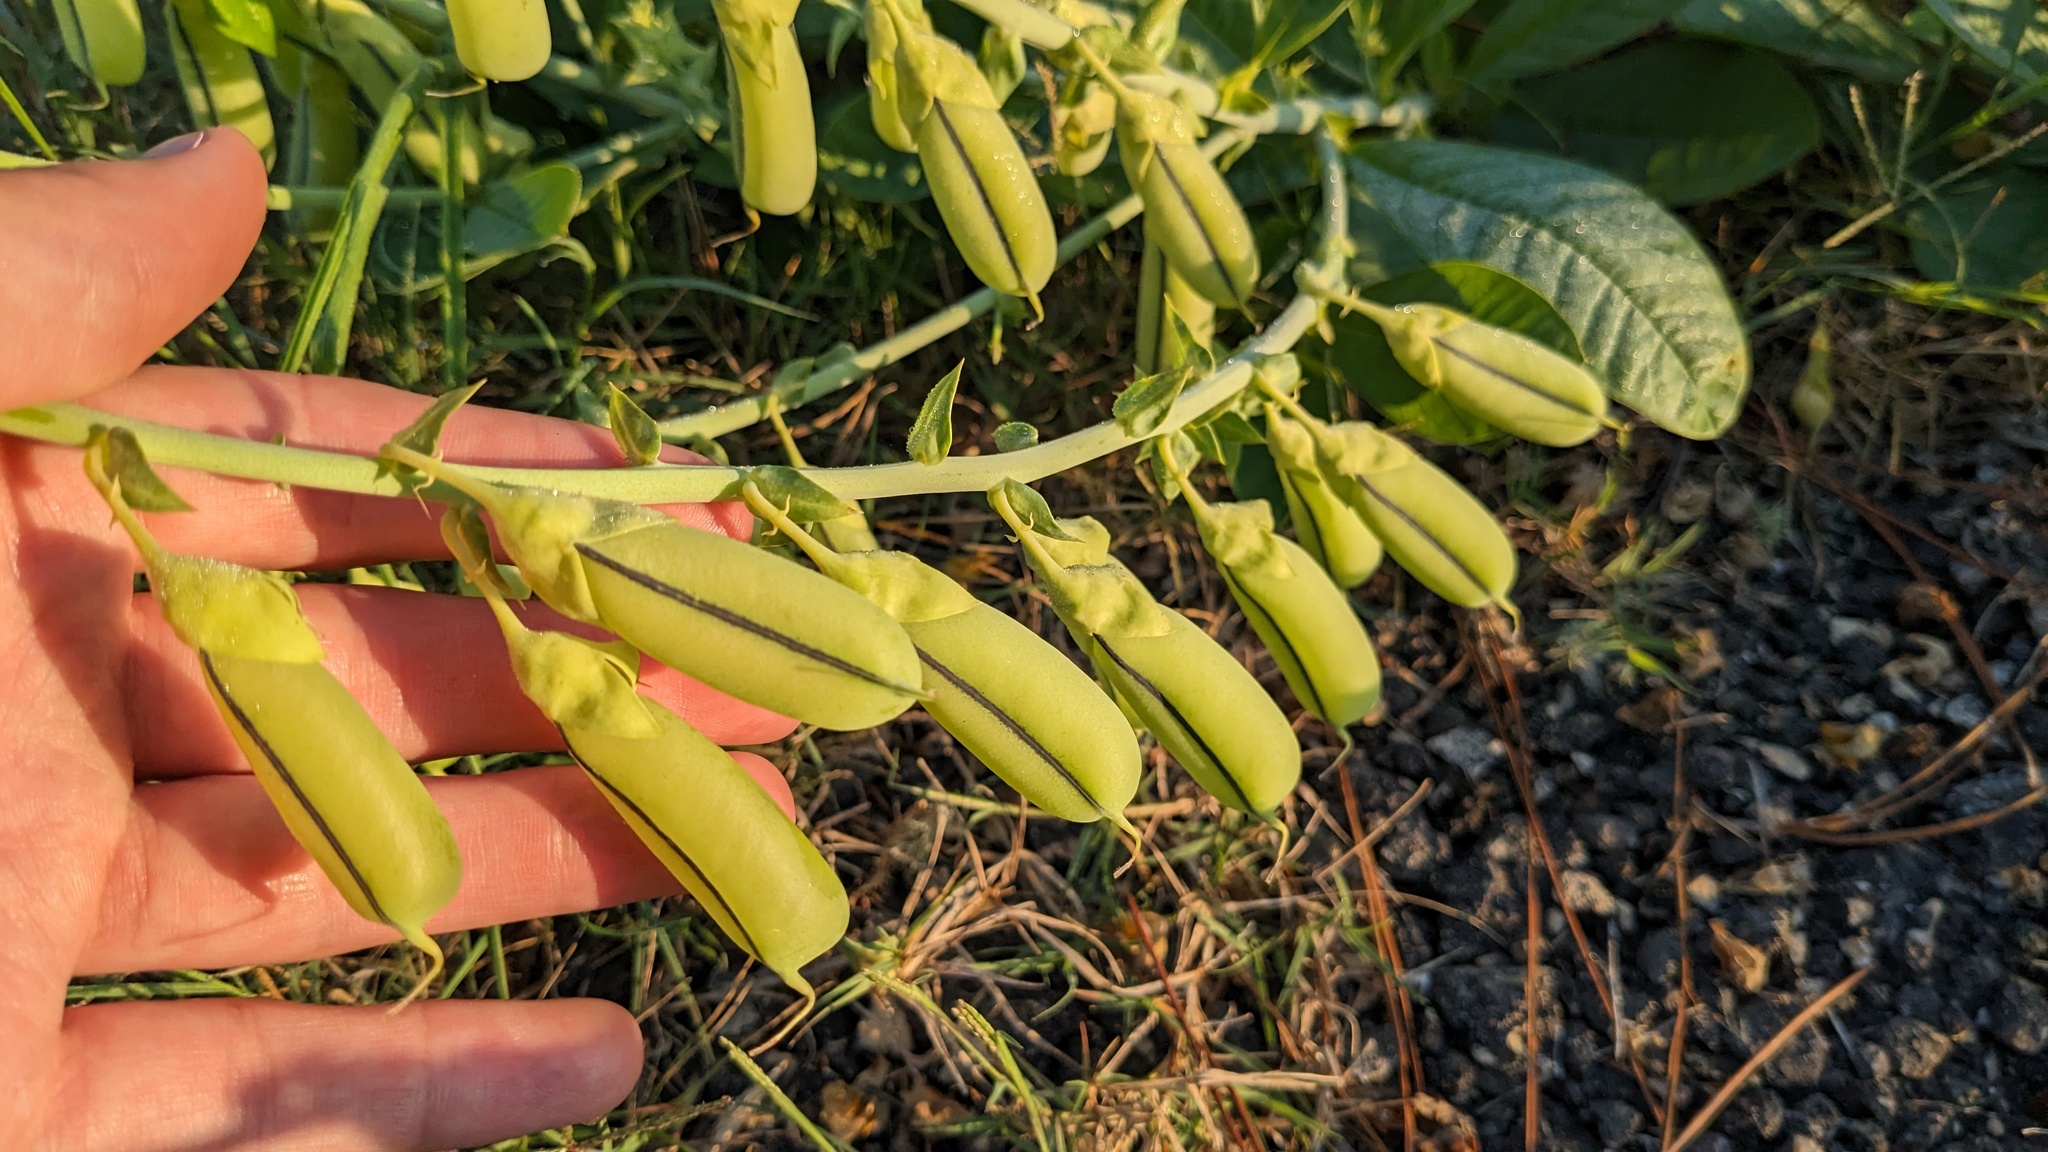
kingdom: Plantae
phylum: Tracheophyta
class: Magnoliopsida
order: Fabales
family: Fabaceae
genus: Crotalaria
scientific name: Crotalaria spectabilis
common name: Showy rattlebox
